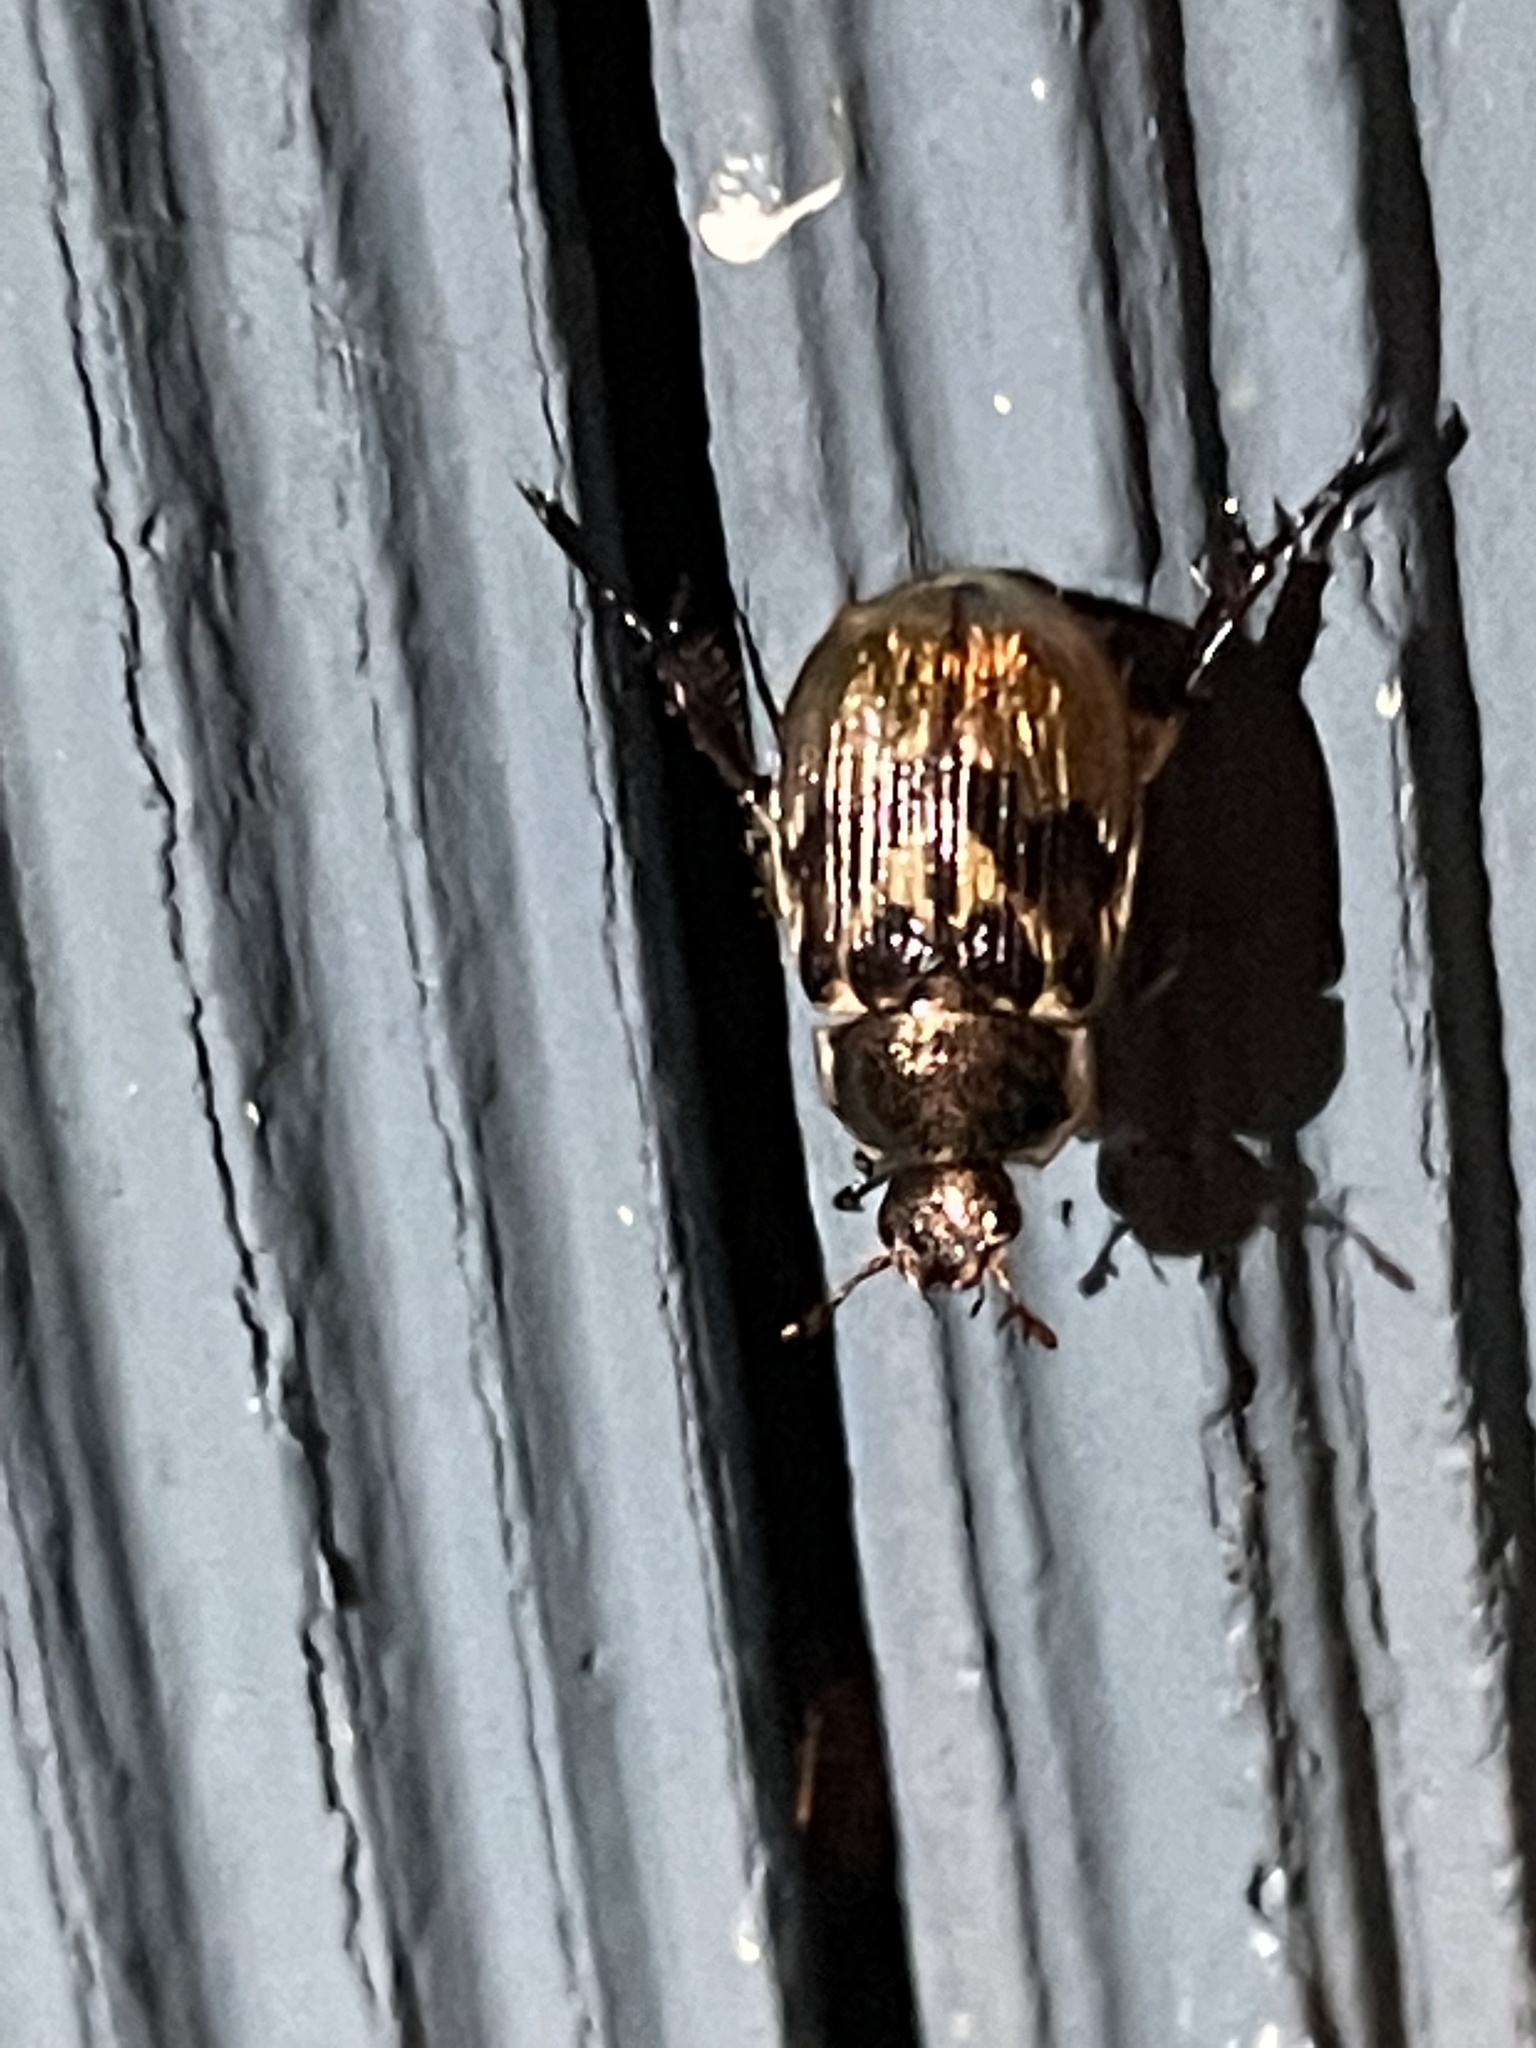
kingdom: Animalia
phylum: Arthropoda
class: Insecta
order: Coleoptera
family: Scarabaeidae
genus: Exomala
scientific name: Exomala orientalis
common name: Oriental beetle
